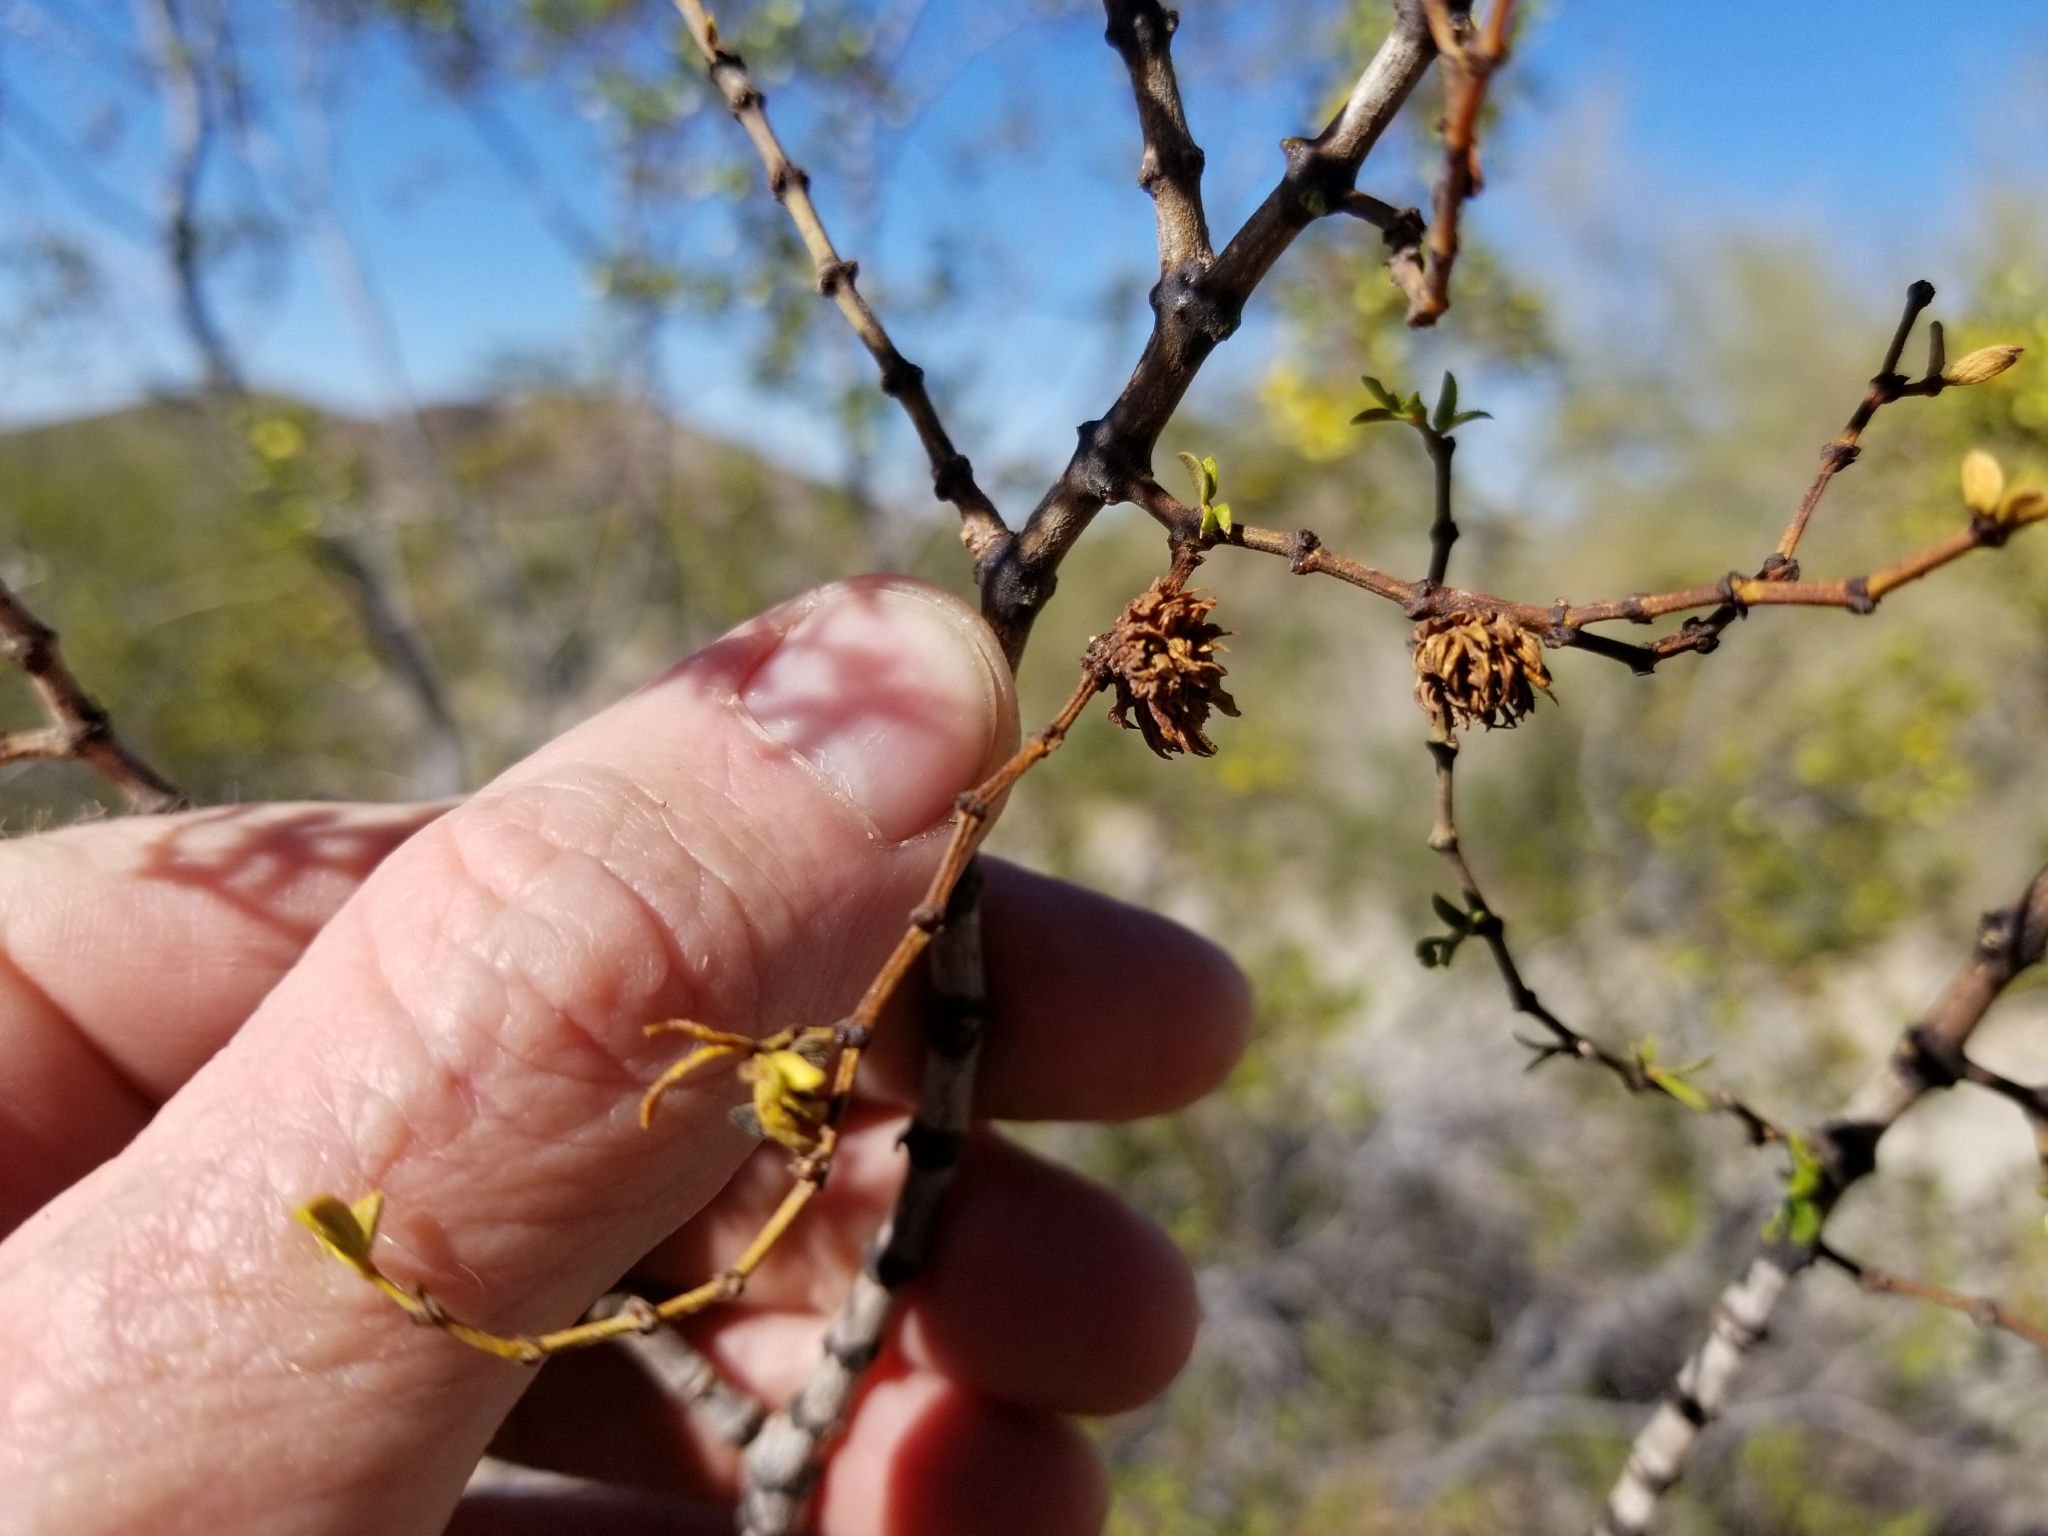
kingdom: Animalia
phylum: Arthropoda
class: Insecta
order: Diptera
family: Cecidomyiidae
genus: Asphondylia
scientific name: Asphondylia foliosa
